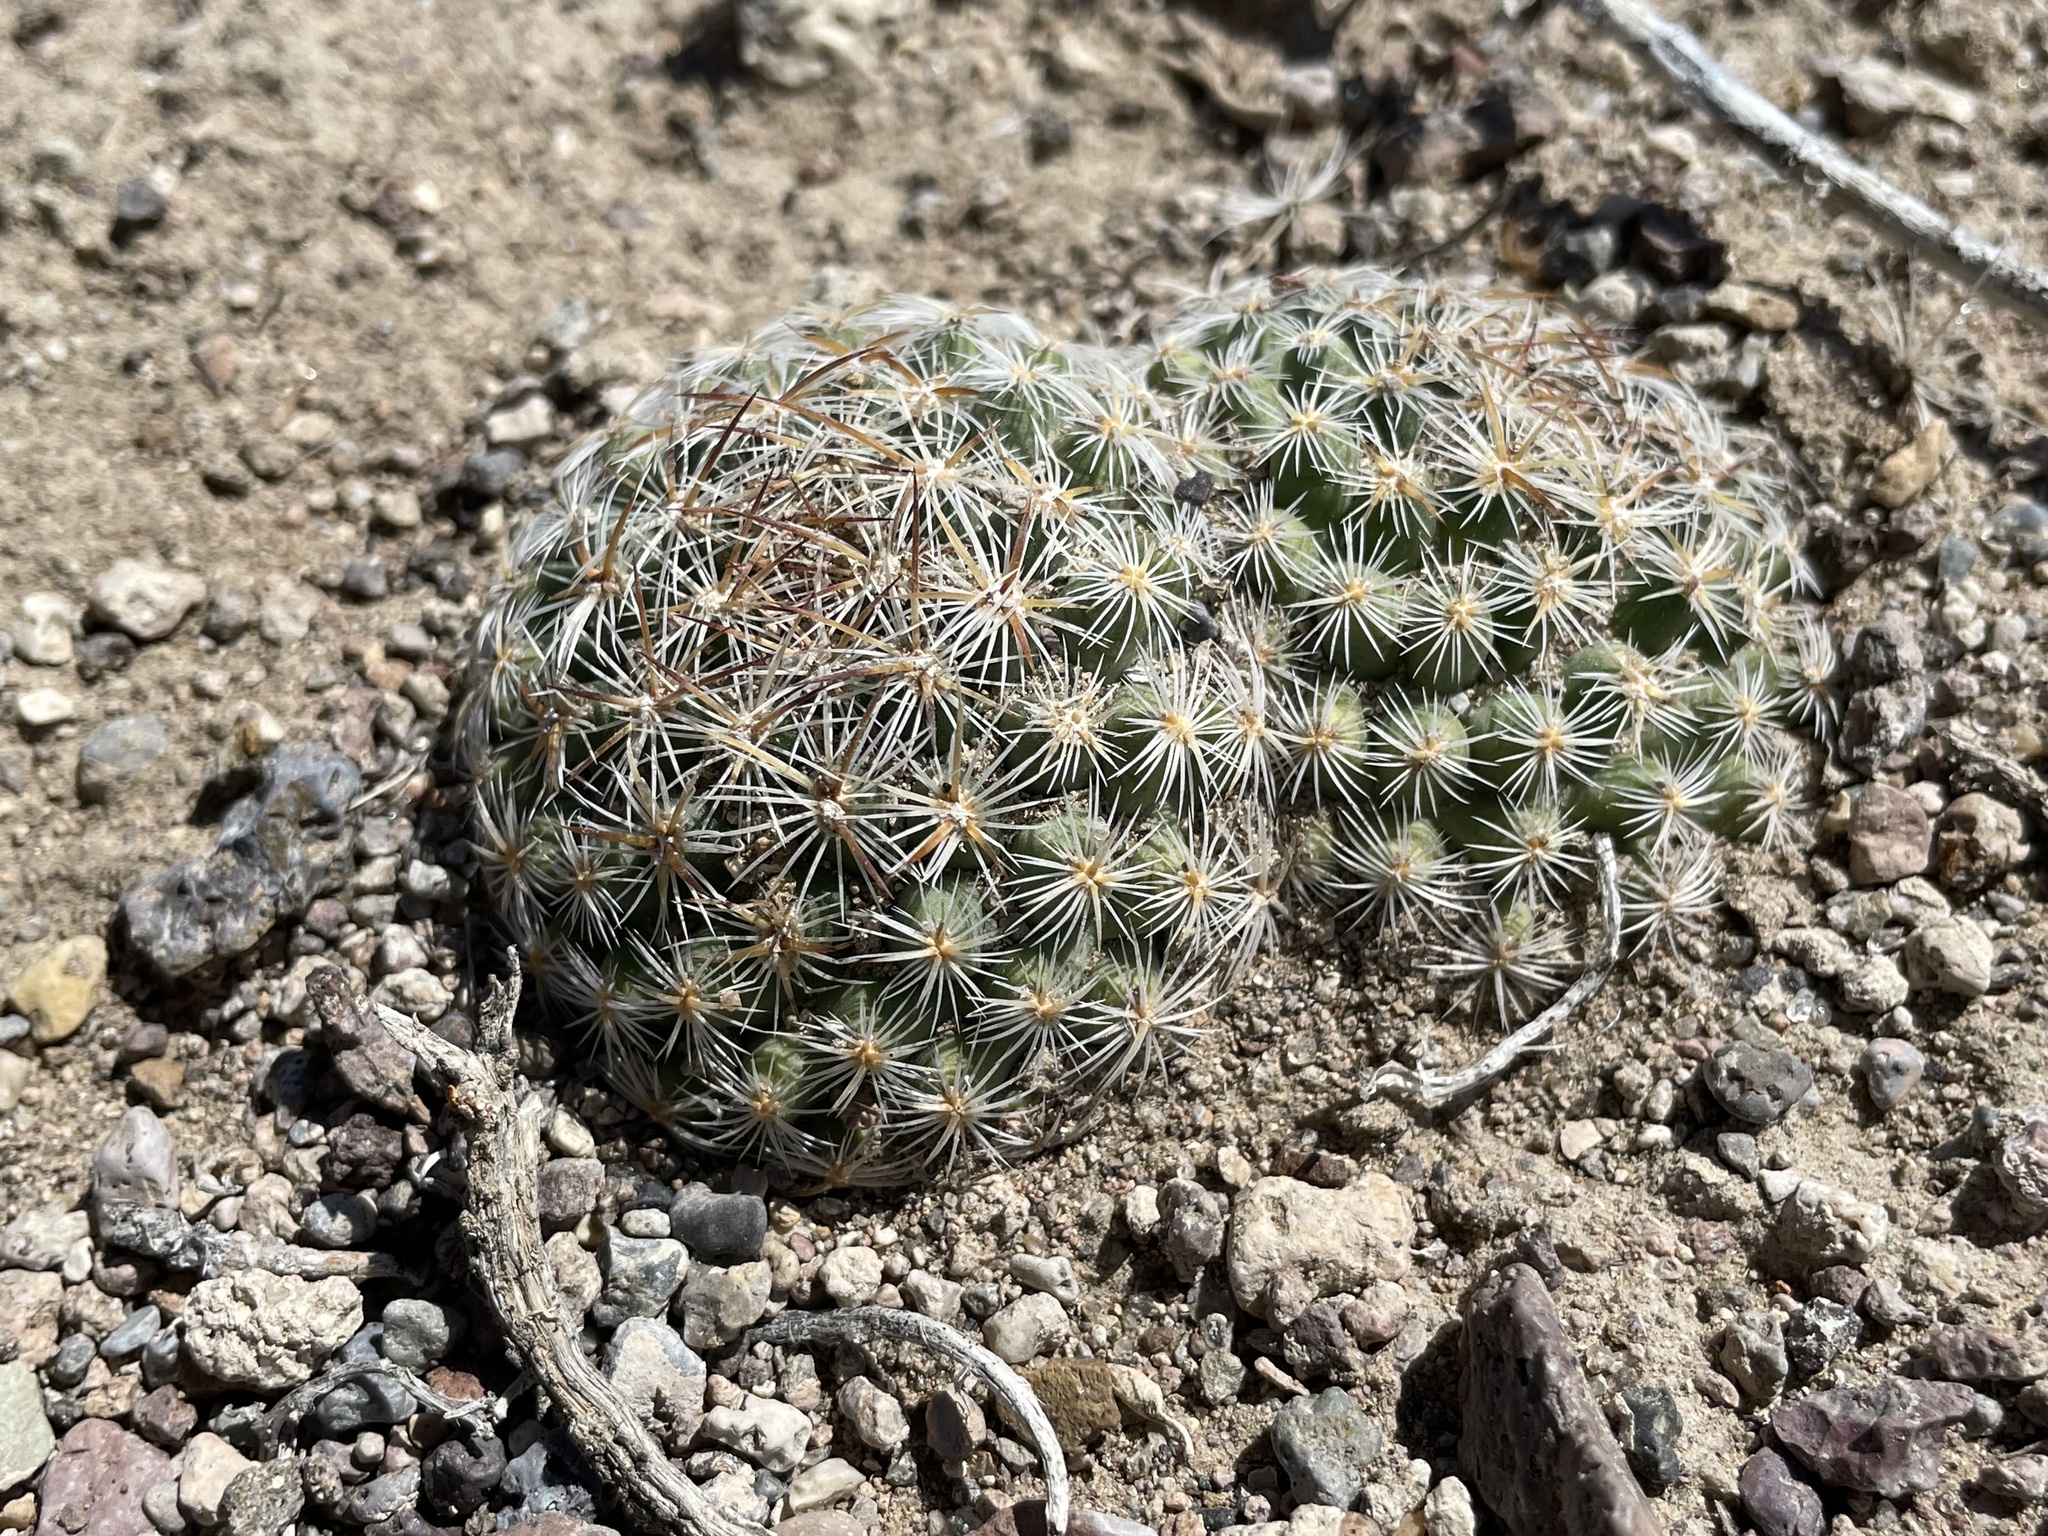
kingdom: Plantae
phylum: Tracheophyta
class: Magnoliopsida
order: Caryophyllales
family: Cactaceae
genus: Pediocactus
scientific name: Pediocactus simpsonii
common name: Simpson's hedgehog cactus
